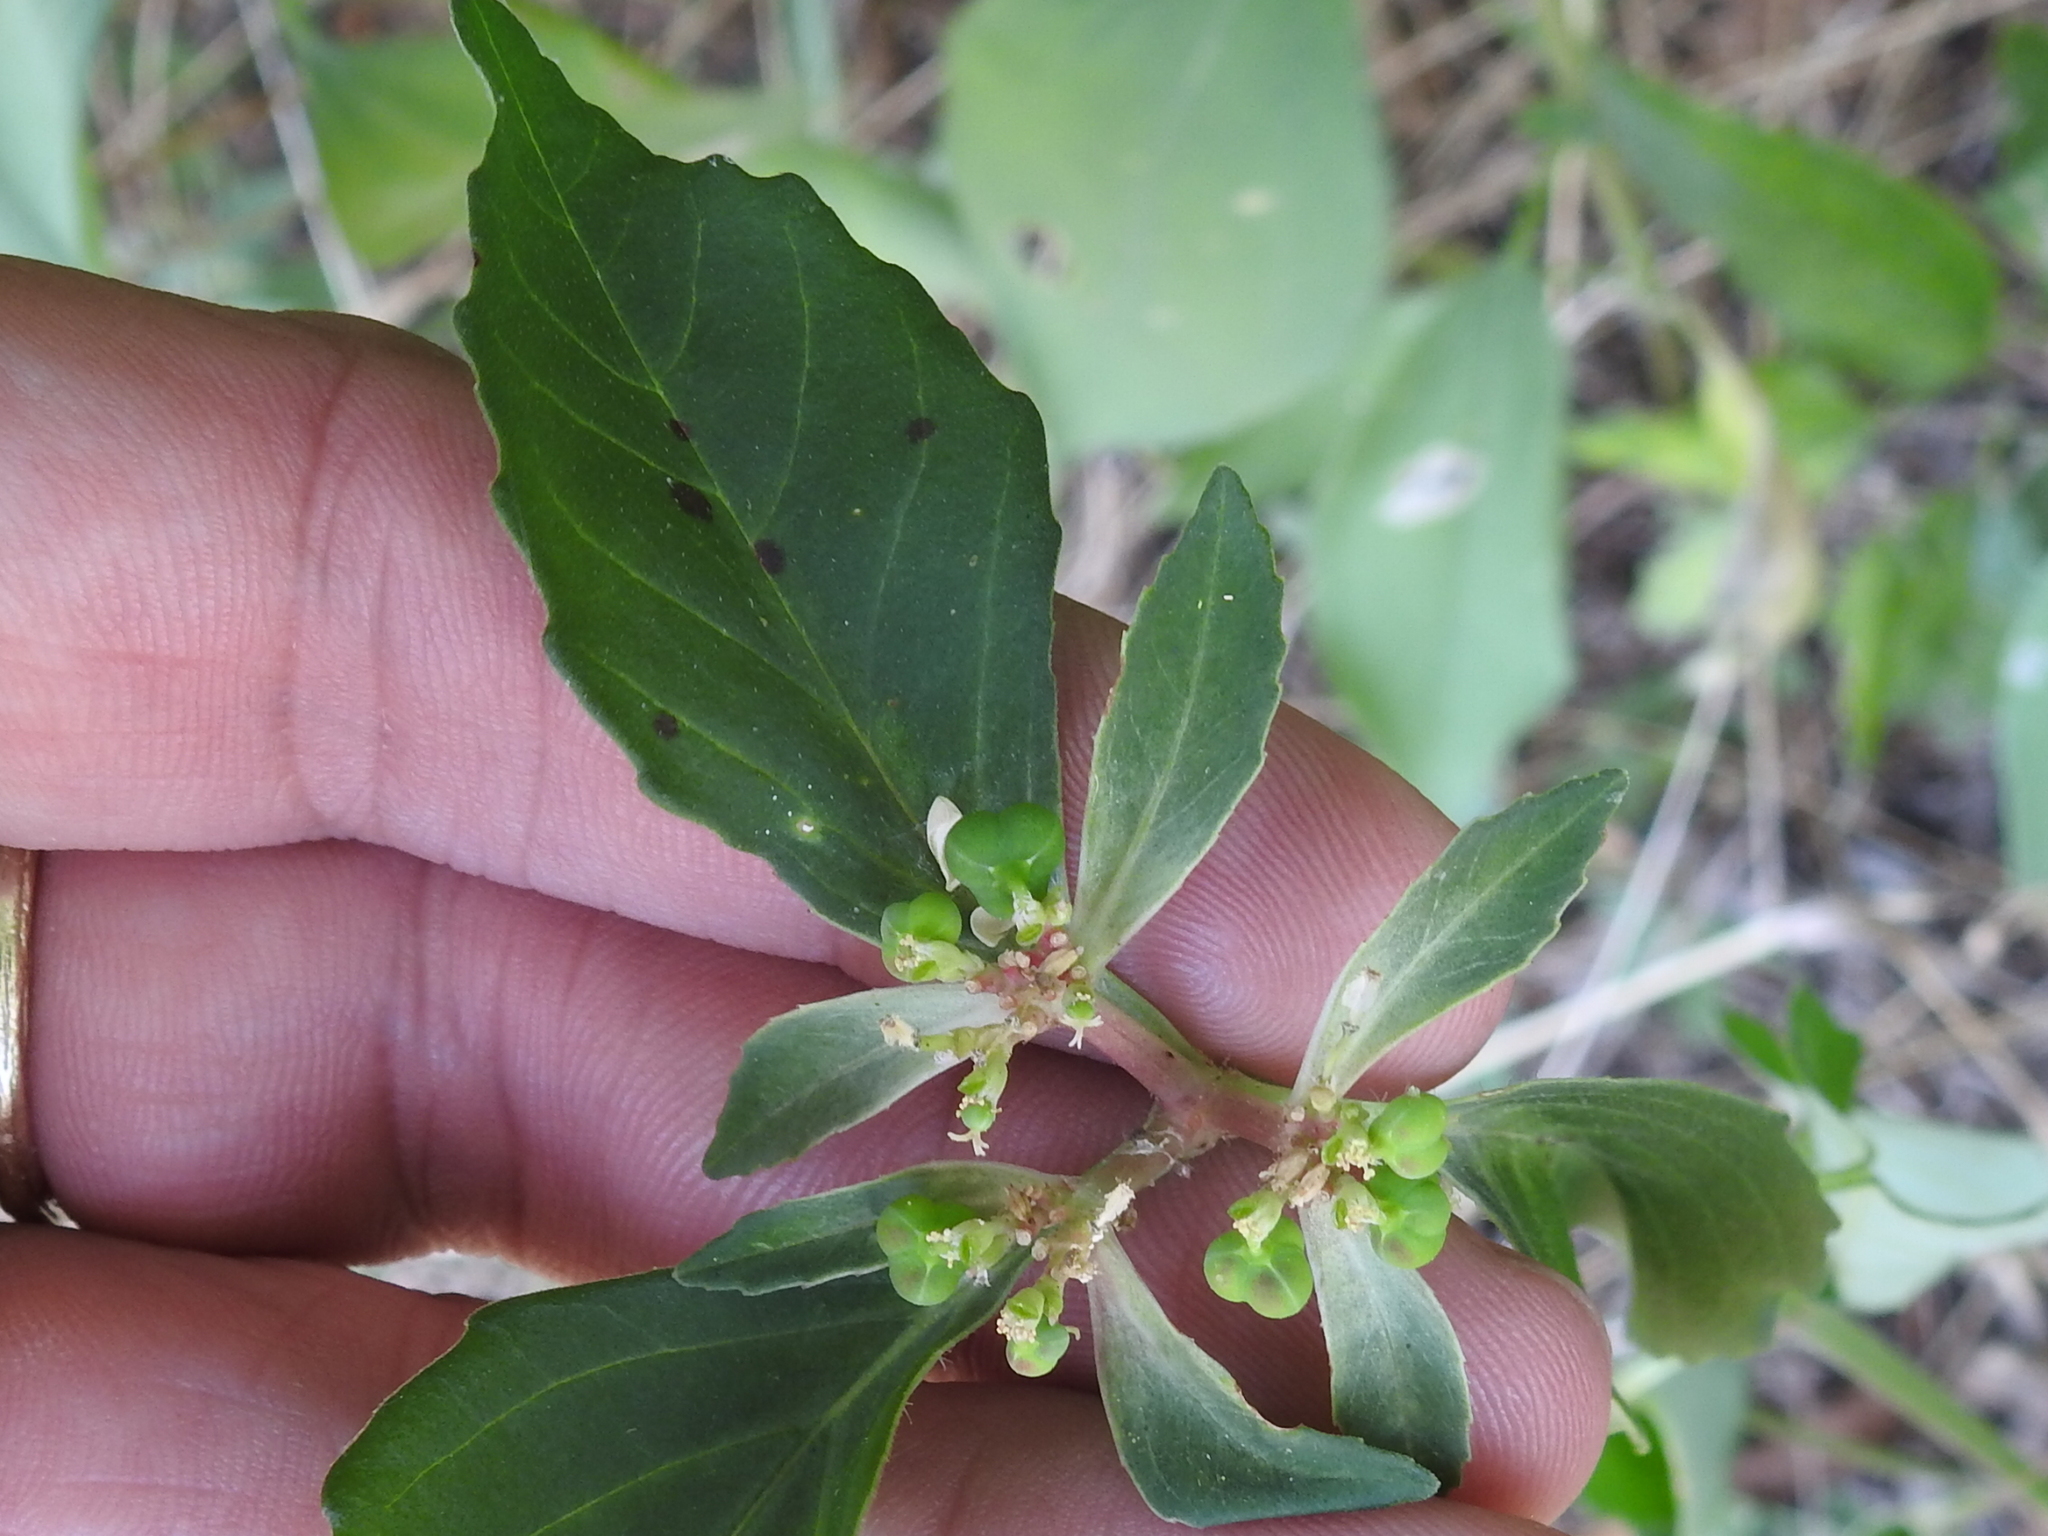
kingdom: Plantae
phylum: Tracheophyta
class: Magnoliopsida
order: Malpighiales
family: Euphorbiaceae
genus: Euphorbia
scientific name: Euphorbia dentata
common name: Dentate spurge
